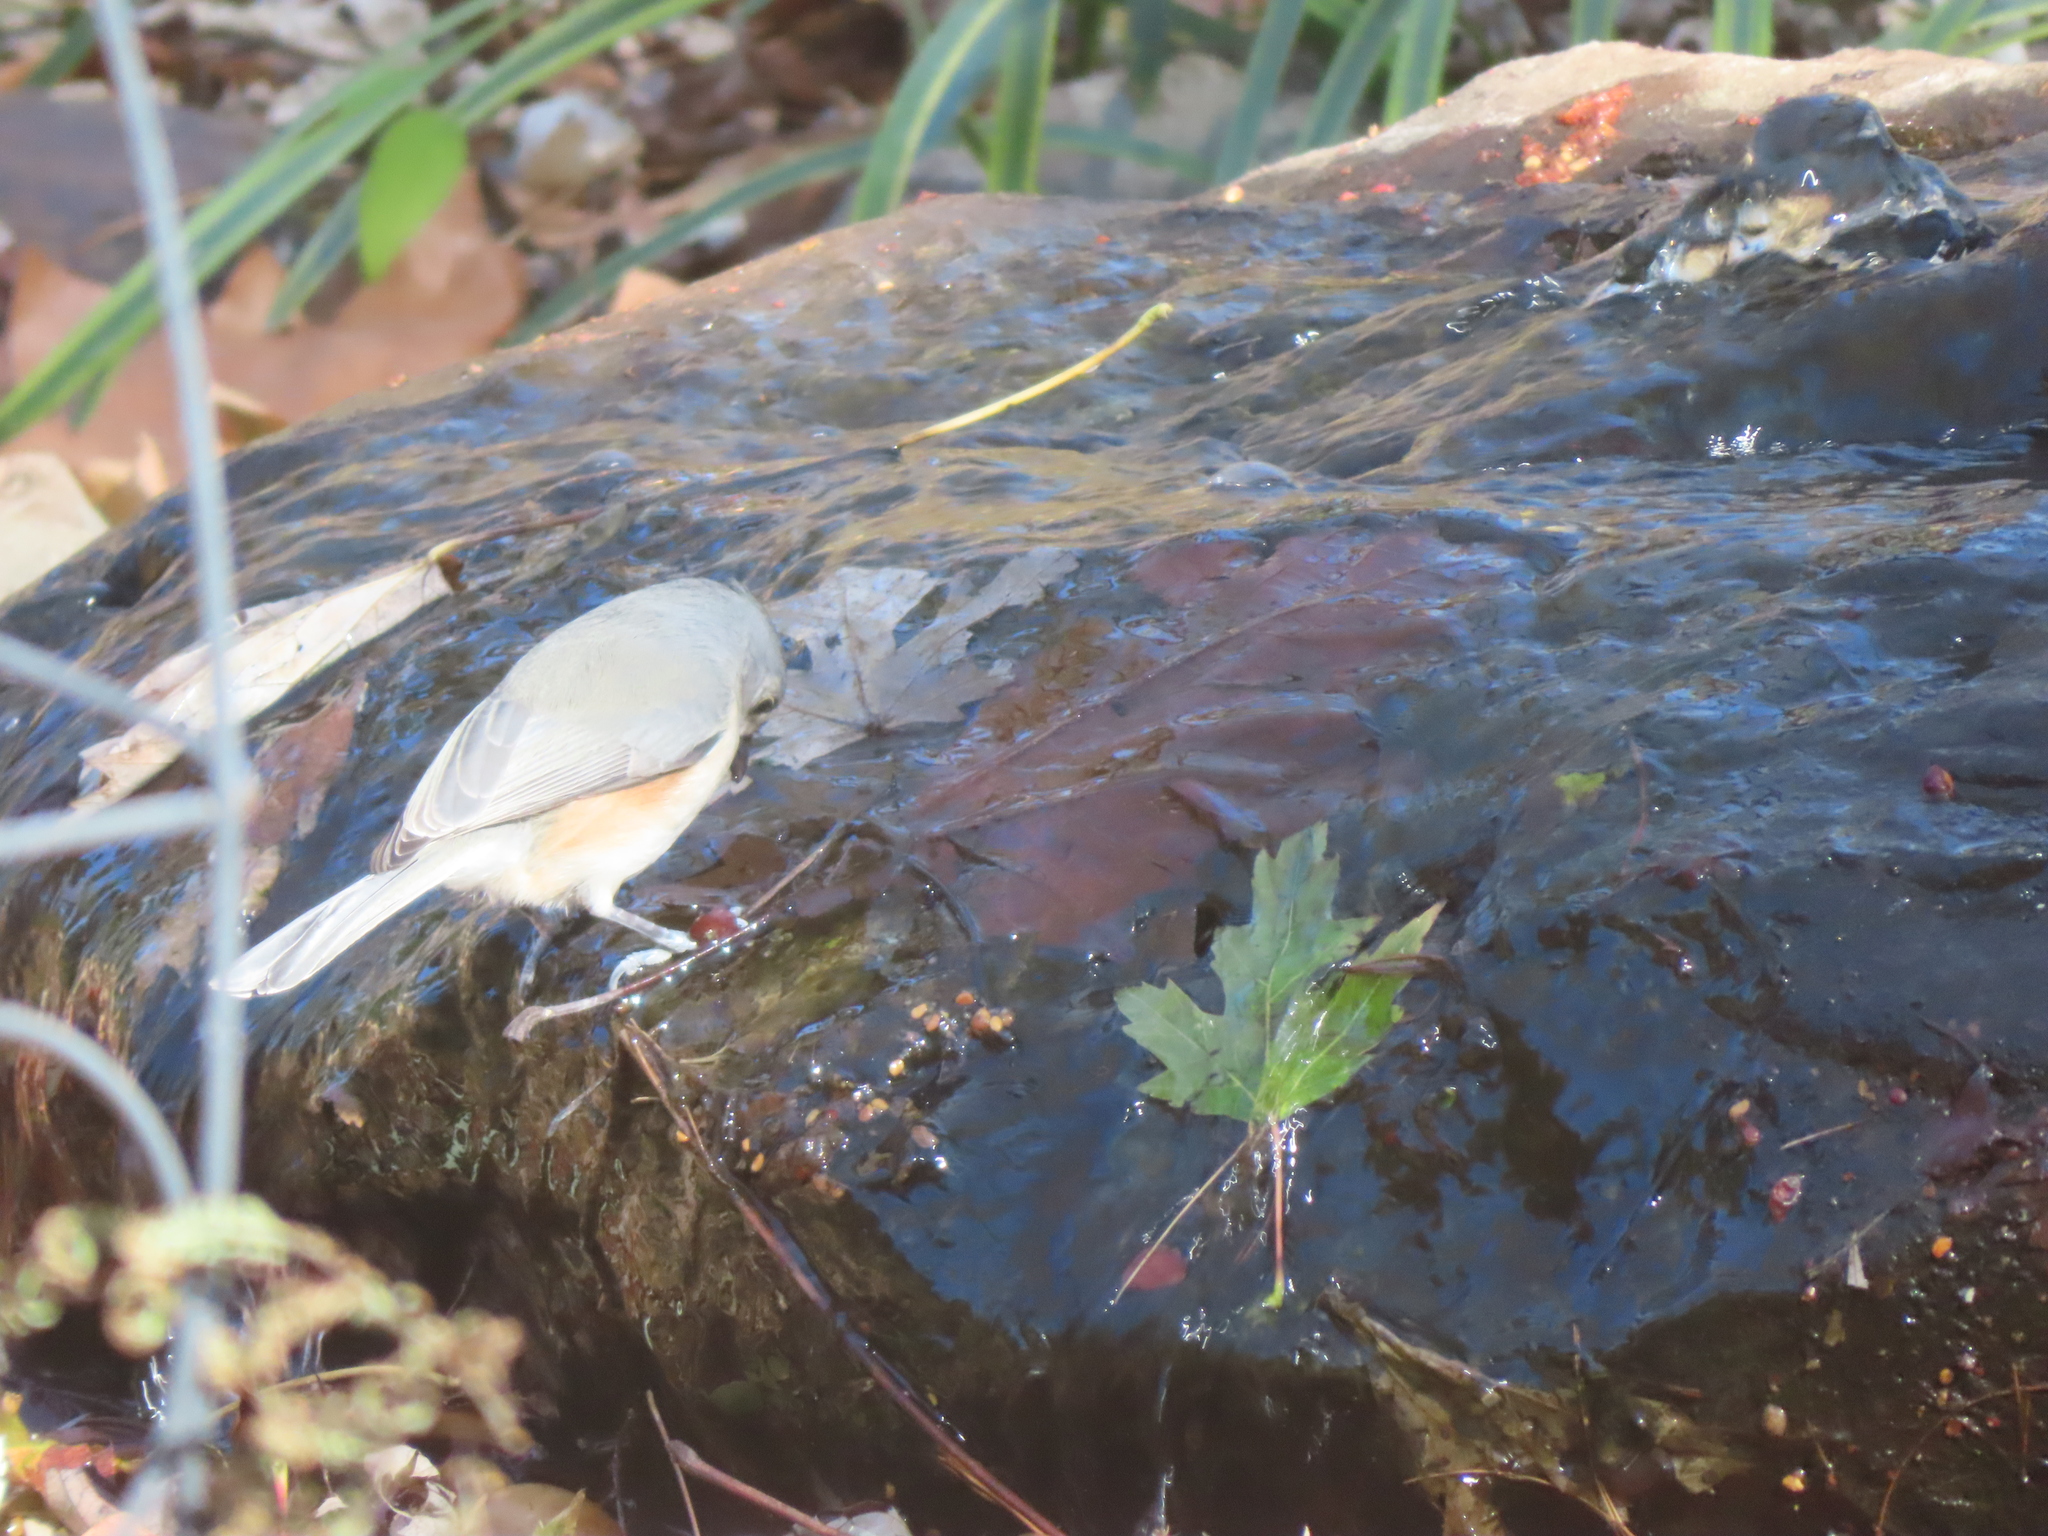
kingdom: Animalia
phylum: Chordata
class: Aves
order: Passeriformes
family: Paridae
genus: Baeolophus
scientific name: Baeolophus bicolor
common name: Tufted titmouse
